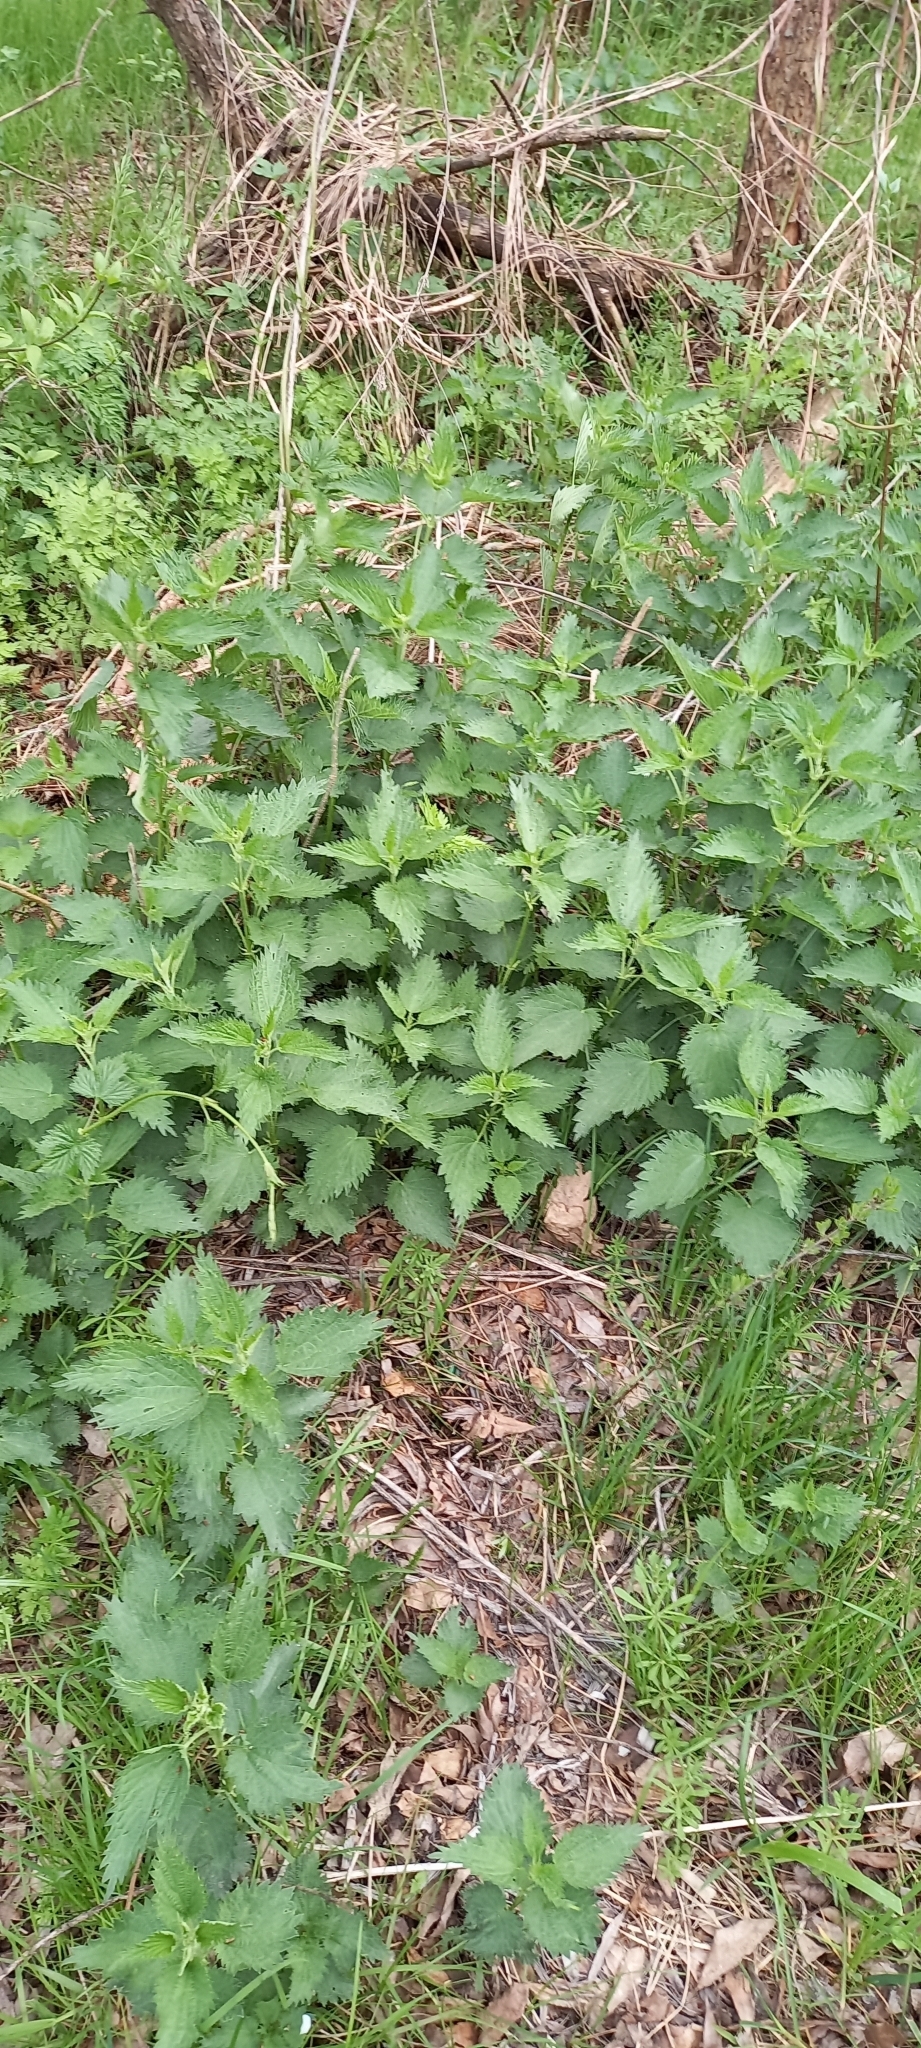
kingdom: Plantae
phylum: Tracheophyta
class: Magnoliopsida
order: Rosales
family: Urticaceae
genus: Urtica
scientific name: Urtica dioica
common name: Common nettle
